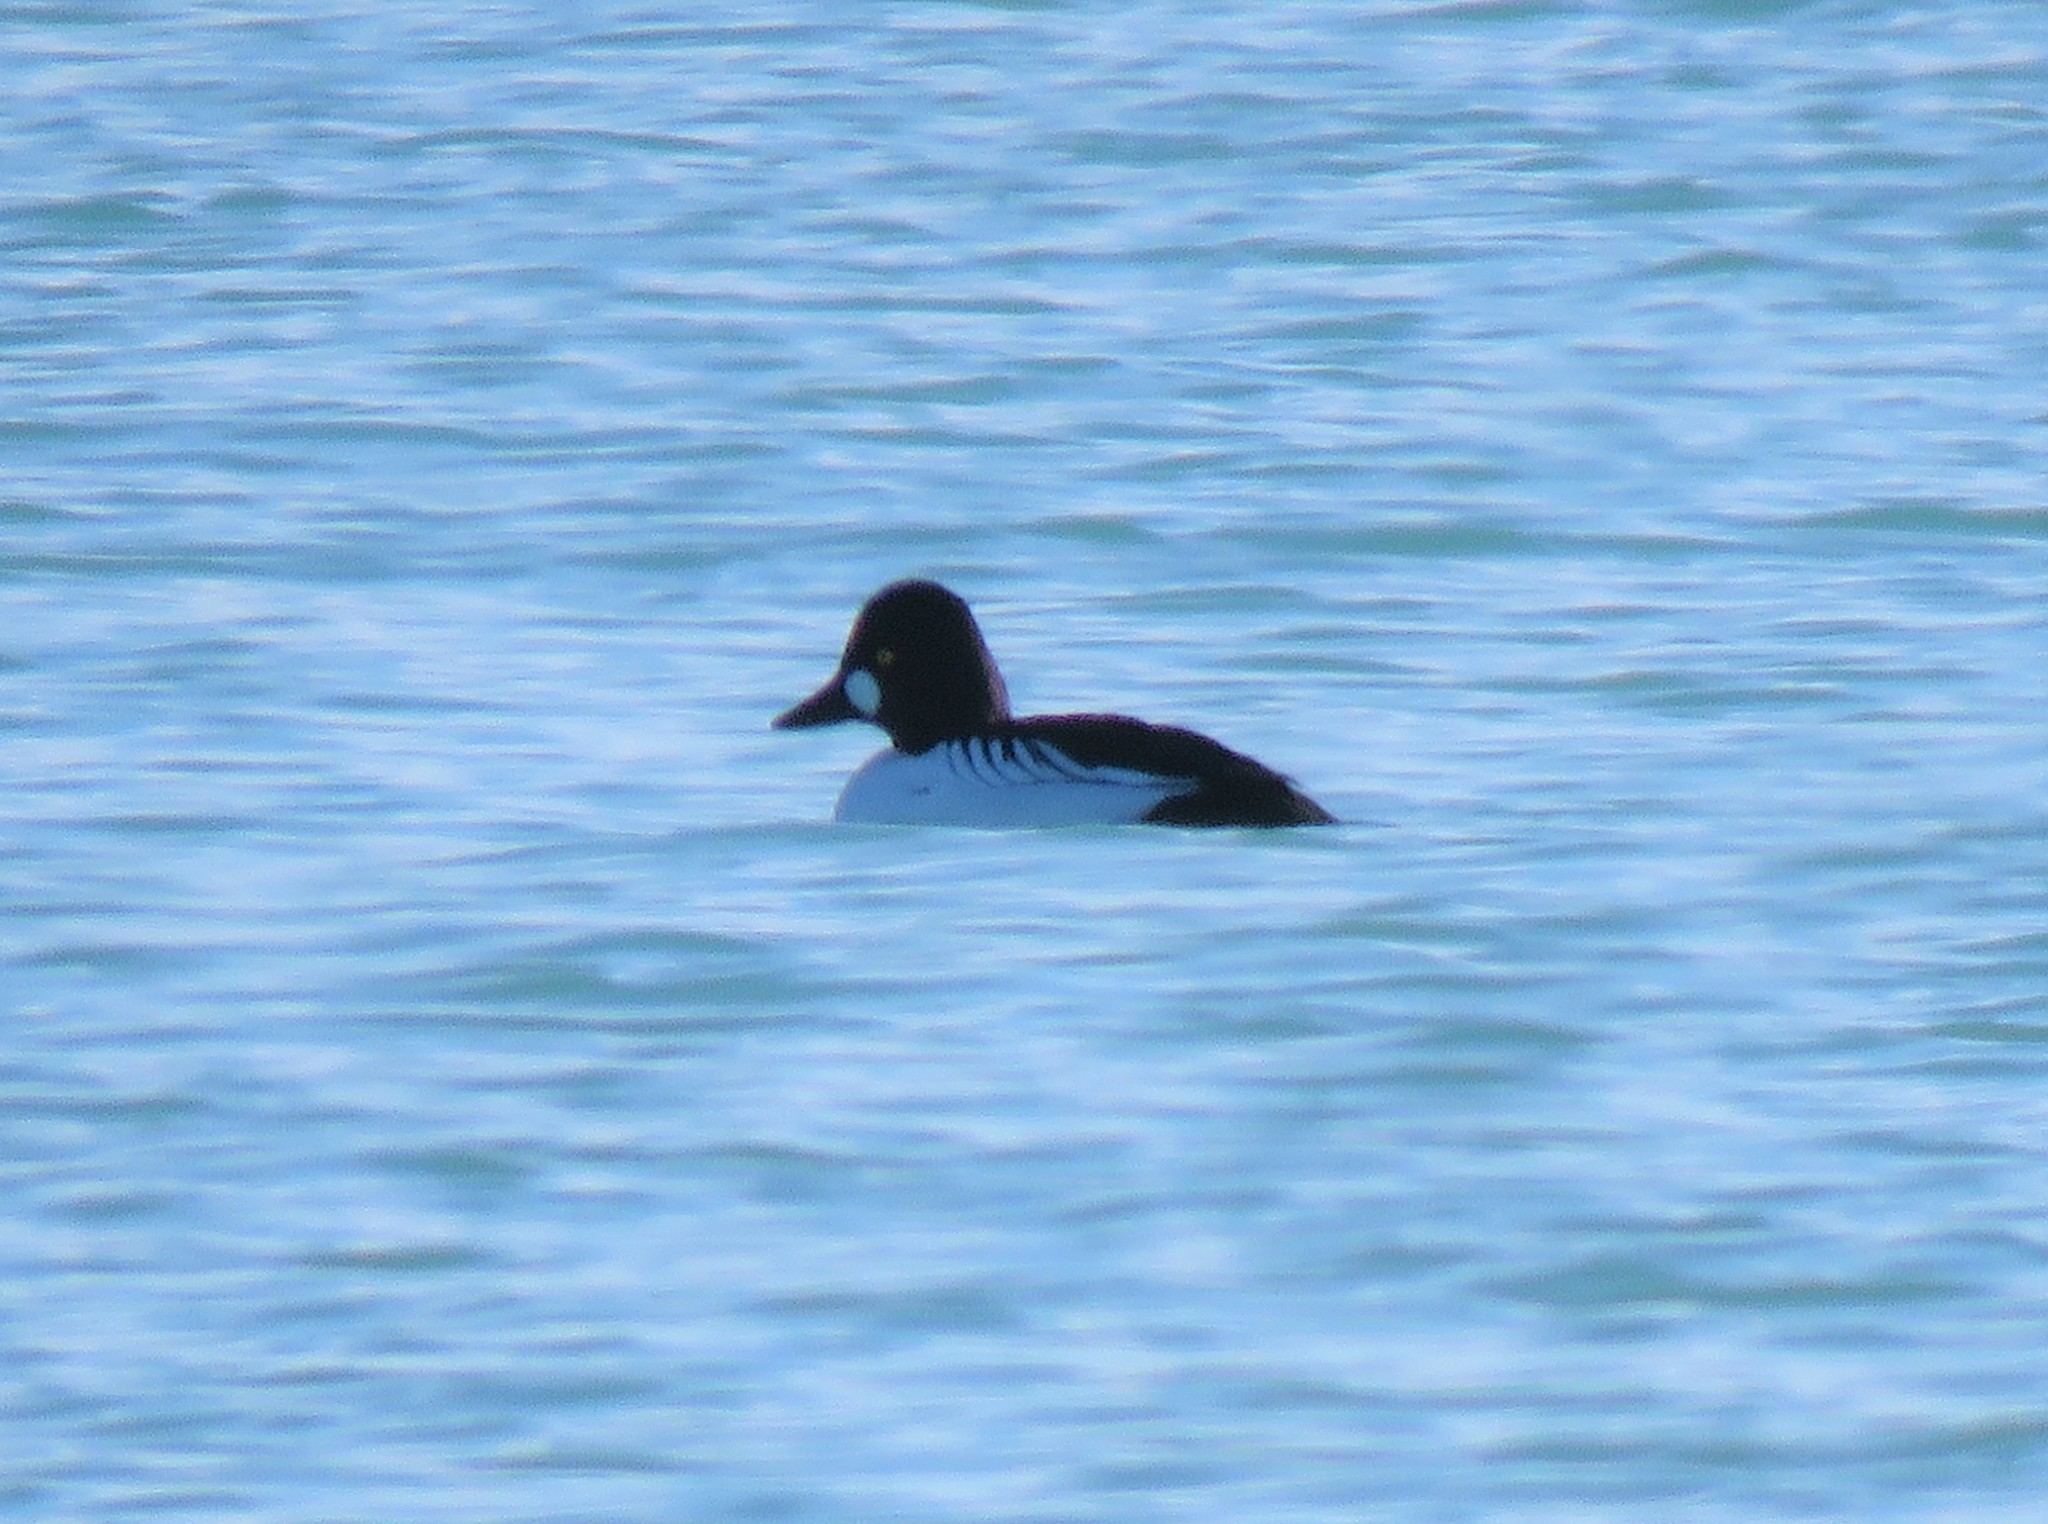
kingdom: Animalia
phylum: Chordata
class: Aves
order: Anseriformes
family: Anatidae
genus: Bucephala
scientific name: Bucephala clangula
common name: Common goldeneye
